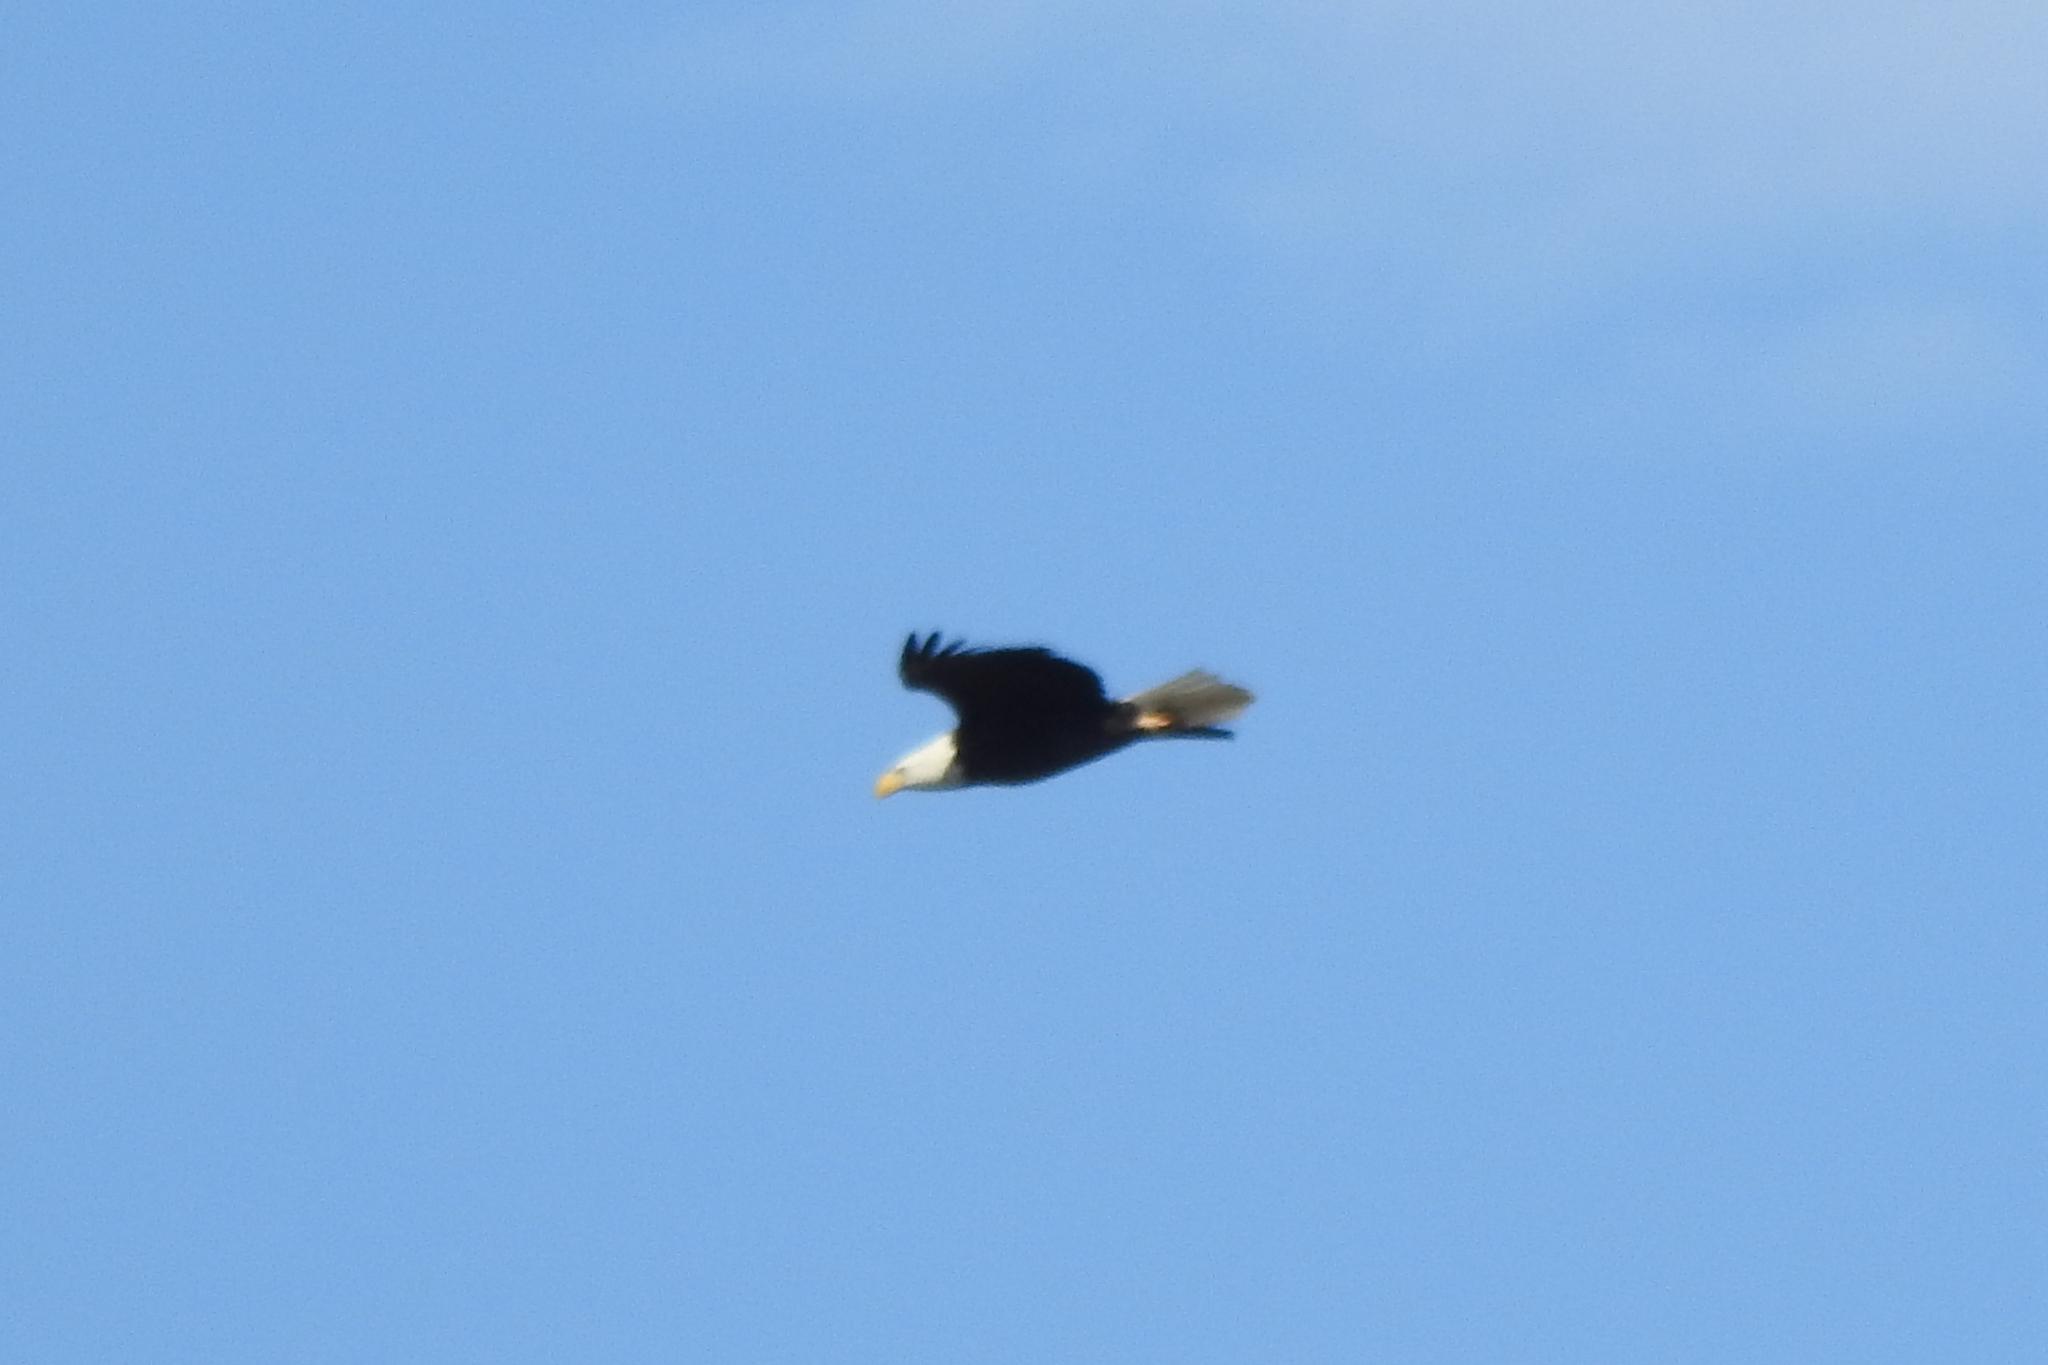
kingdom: Animalia
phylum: Chordata
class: Aves
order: Accipitriformes
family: Accipitridae
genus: Haliaeetus
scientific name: Haliaeetus leucocephalus
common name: Bald eagle
